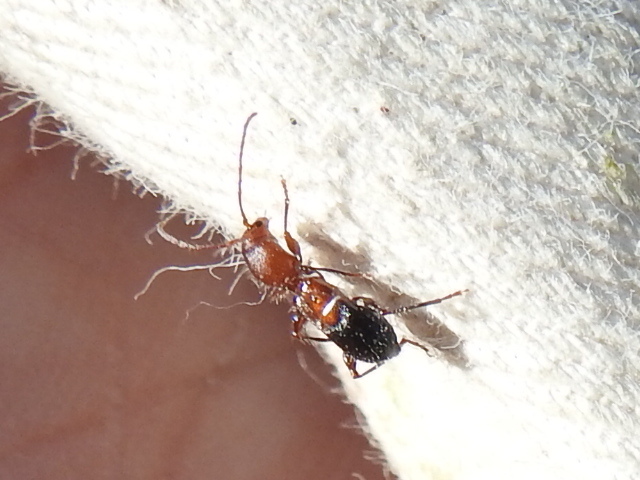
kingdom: Animalia
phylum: Arthropoda
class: Insecta
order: Coleoptera
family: Cerambycidae
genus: Euderces
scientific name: Euderces reichei
